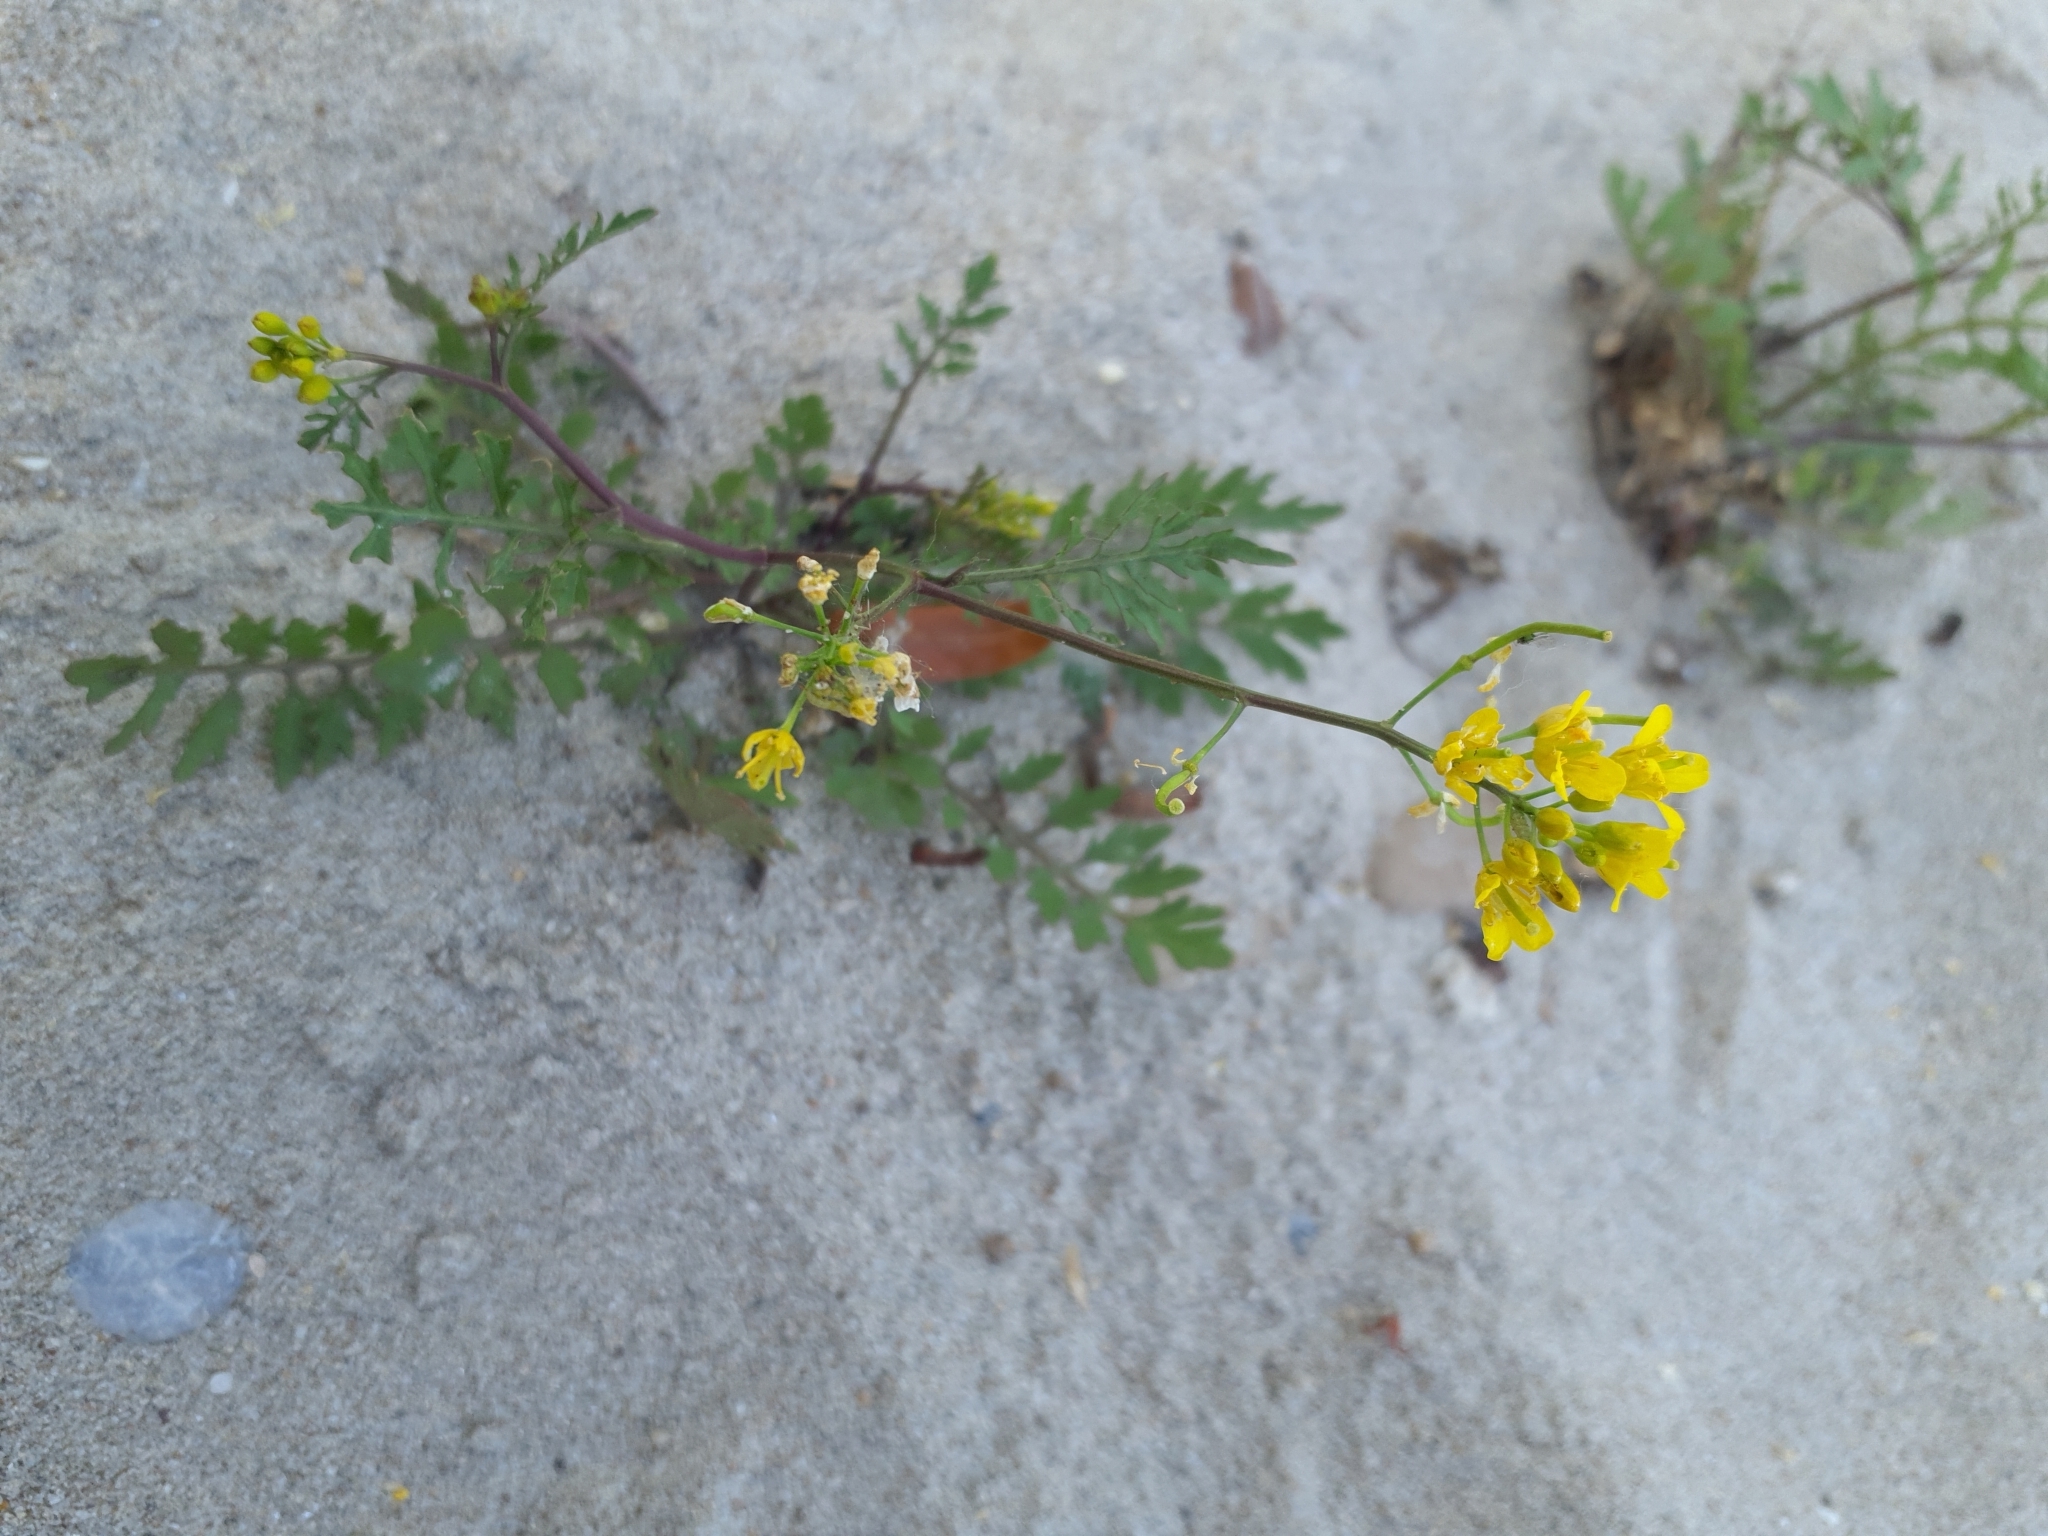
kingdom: Plantae
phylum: Tracheophyta
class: Magnoliopsida
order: Brassicales
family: Brassicaceae
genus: Rorippa
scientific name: Rorippa sylvestris
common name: Creeping yellowcress
